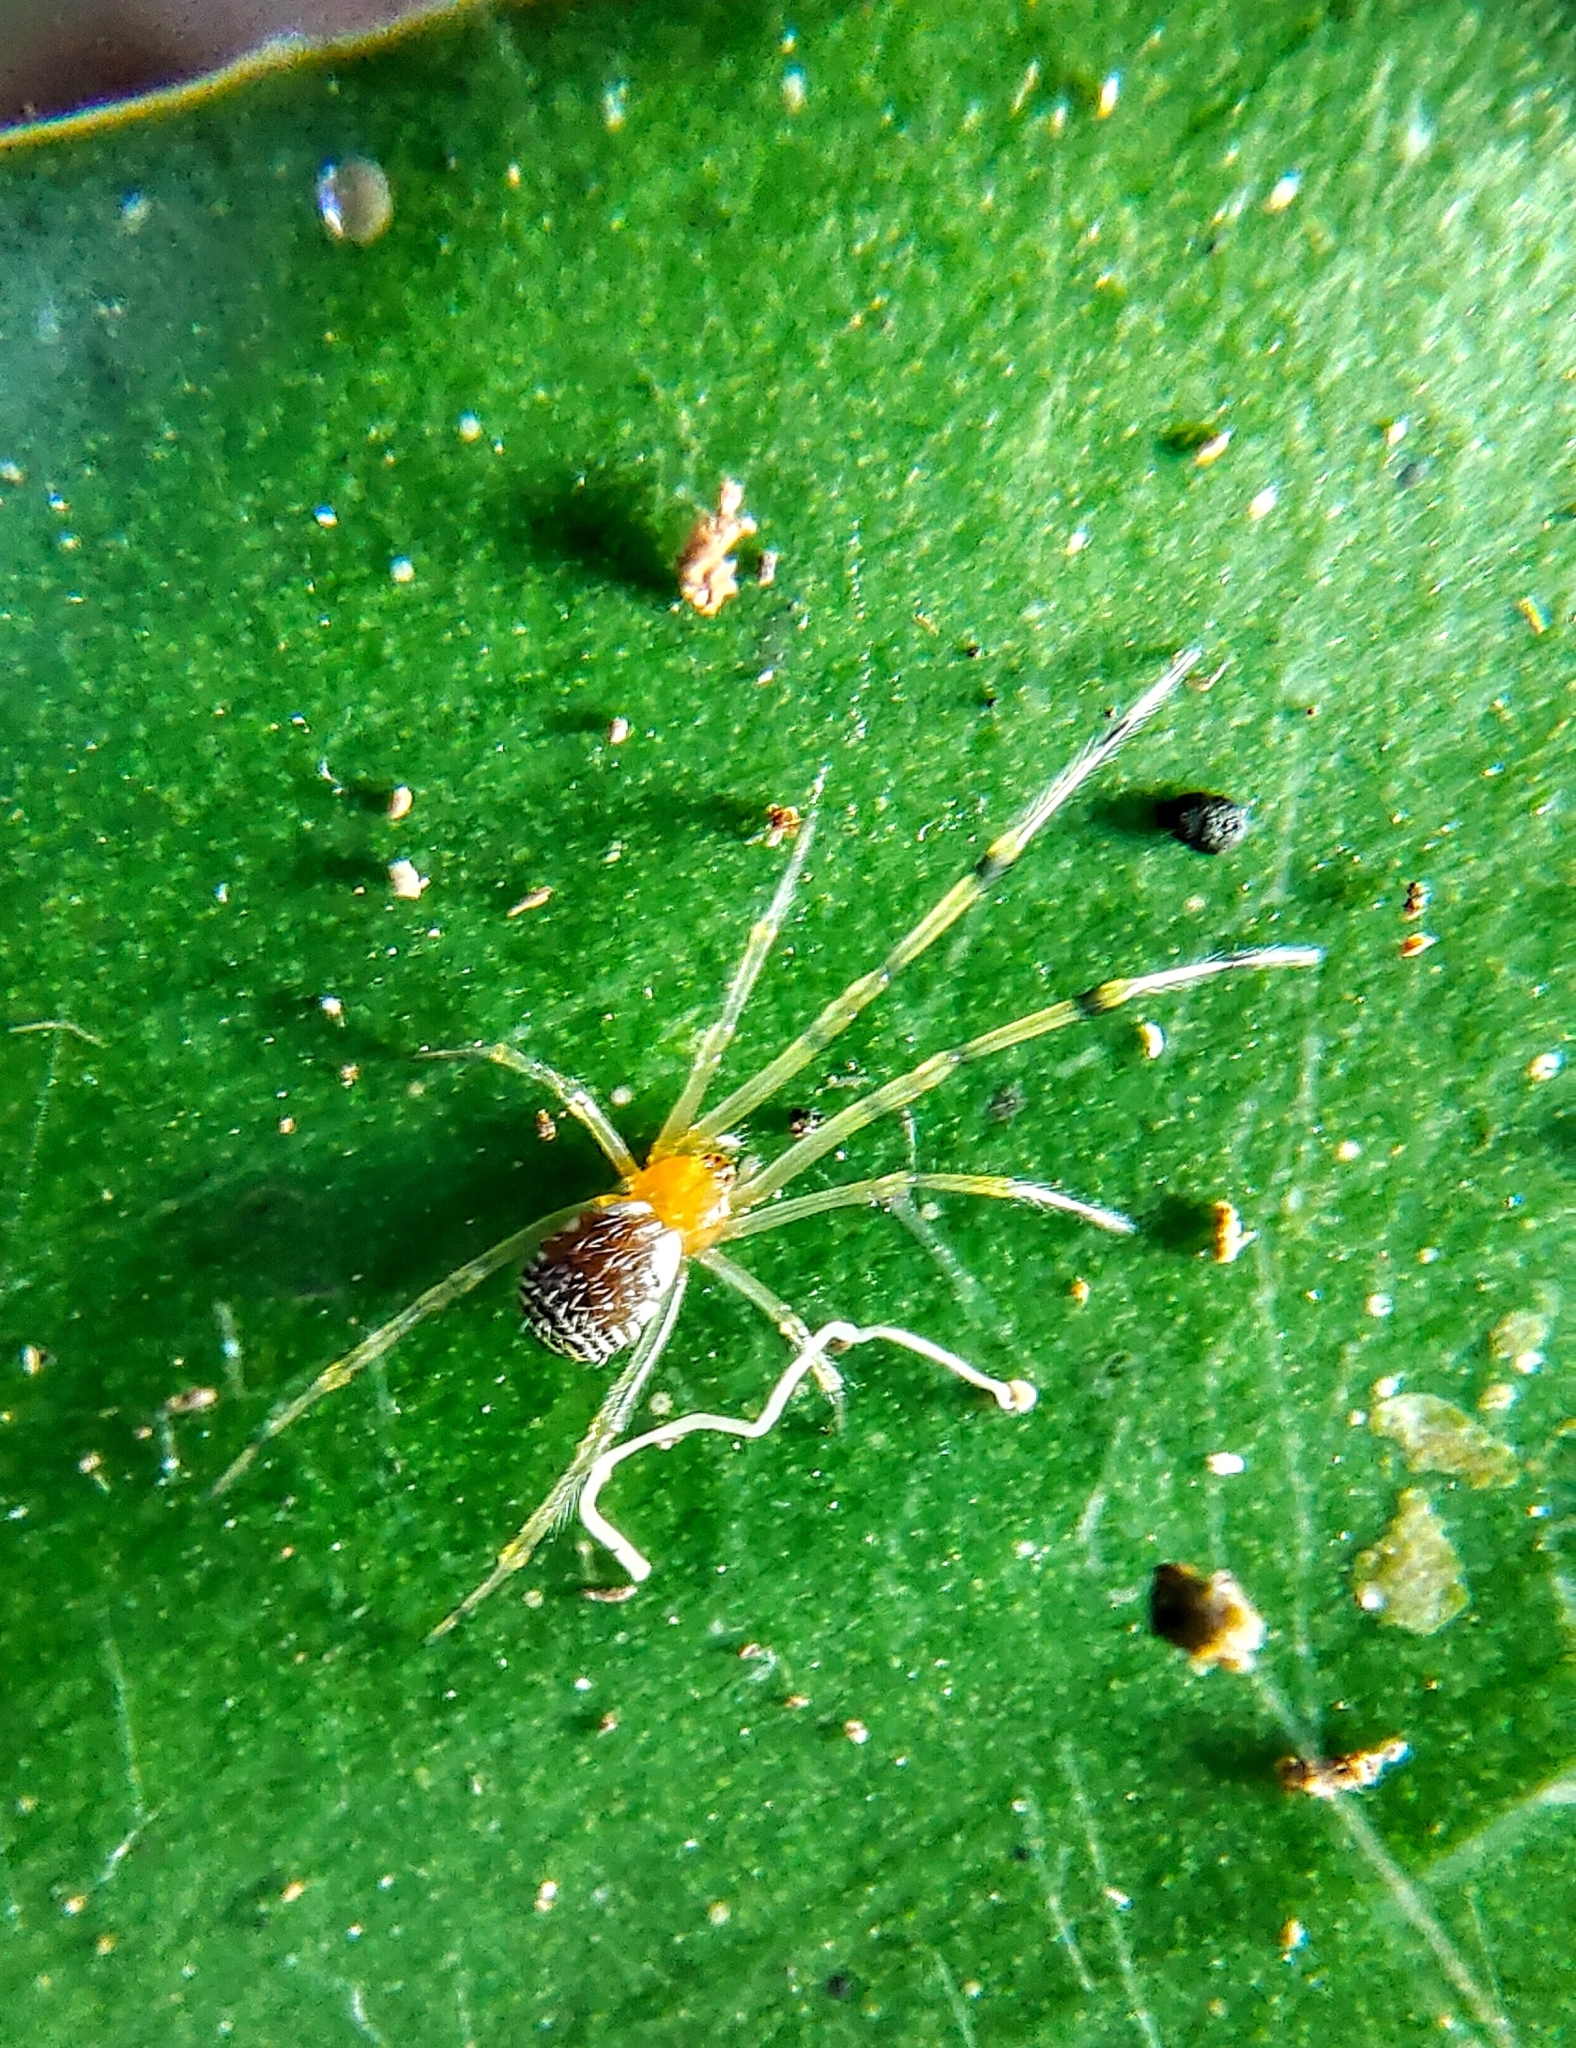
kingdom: Animalia
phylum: Arthropoda
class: Arachnida
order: Araneae
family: Theridiidae
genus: Theridion
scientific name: Theridion zonulatum
